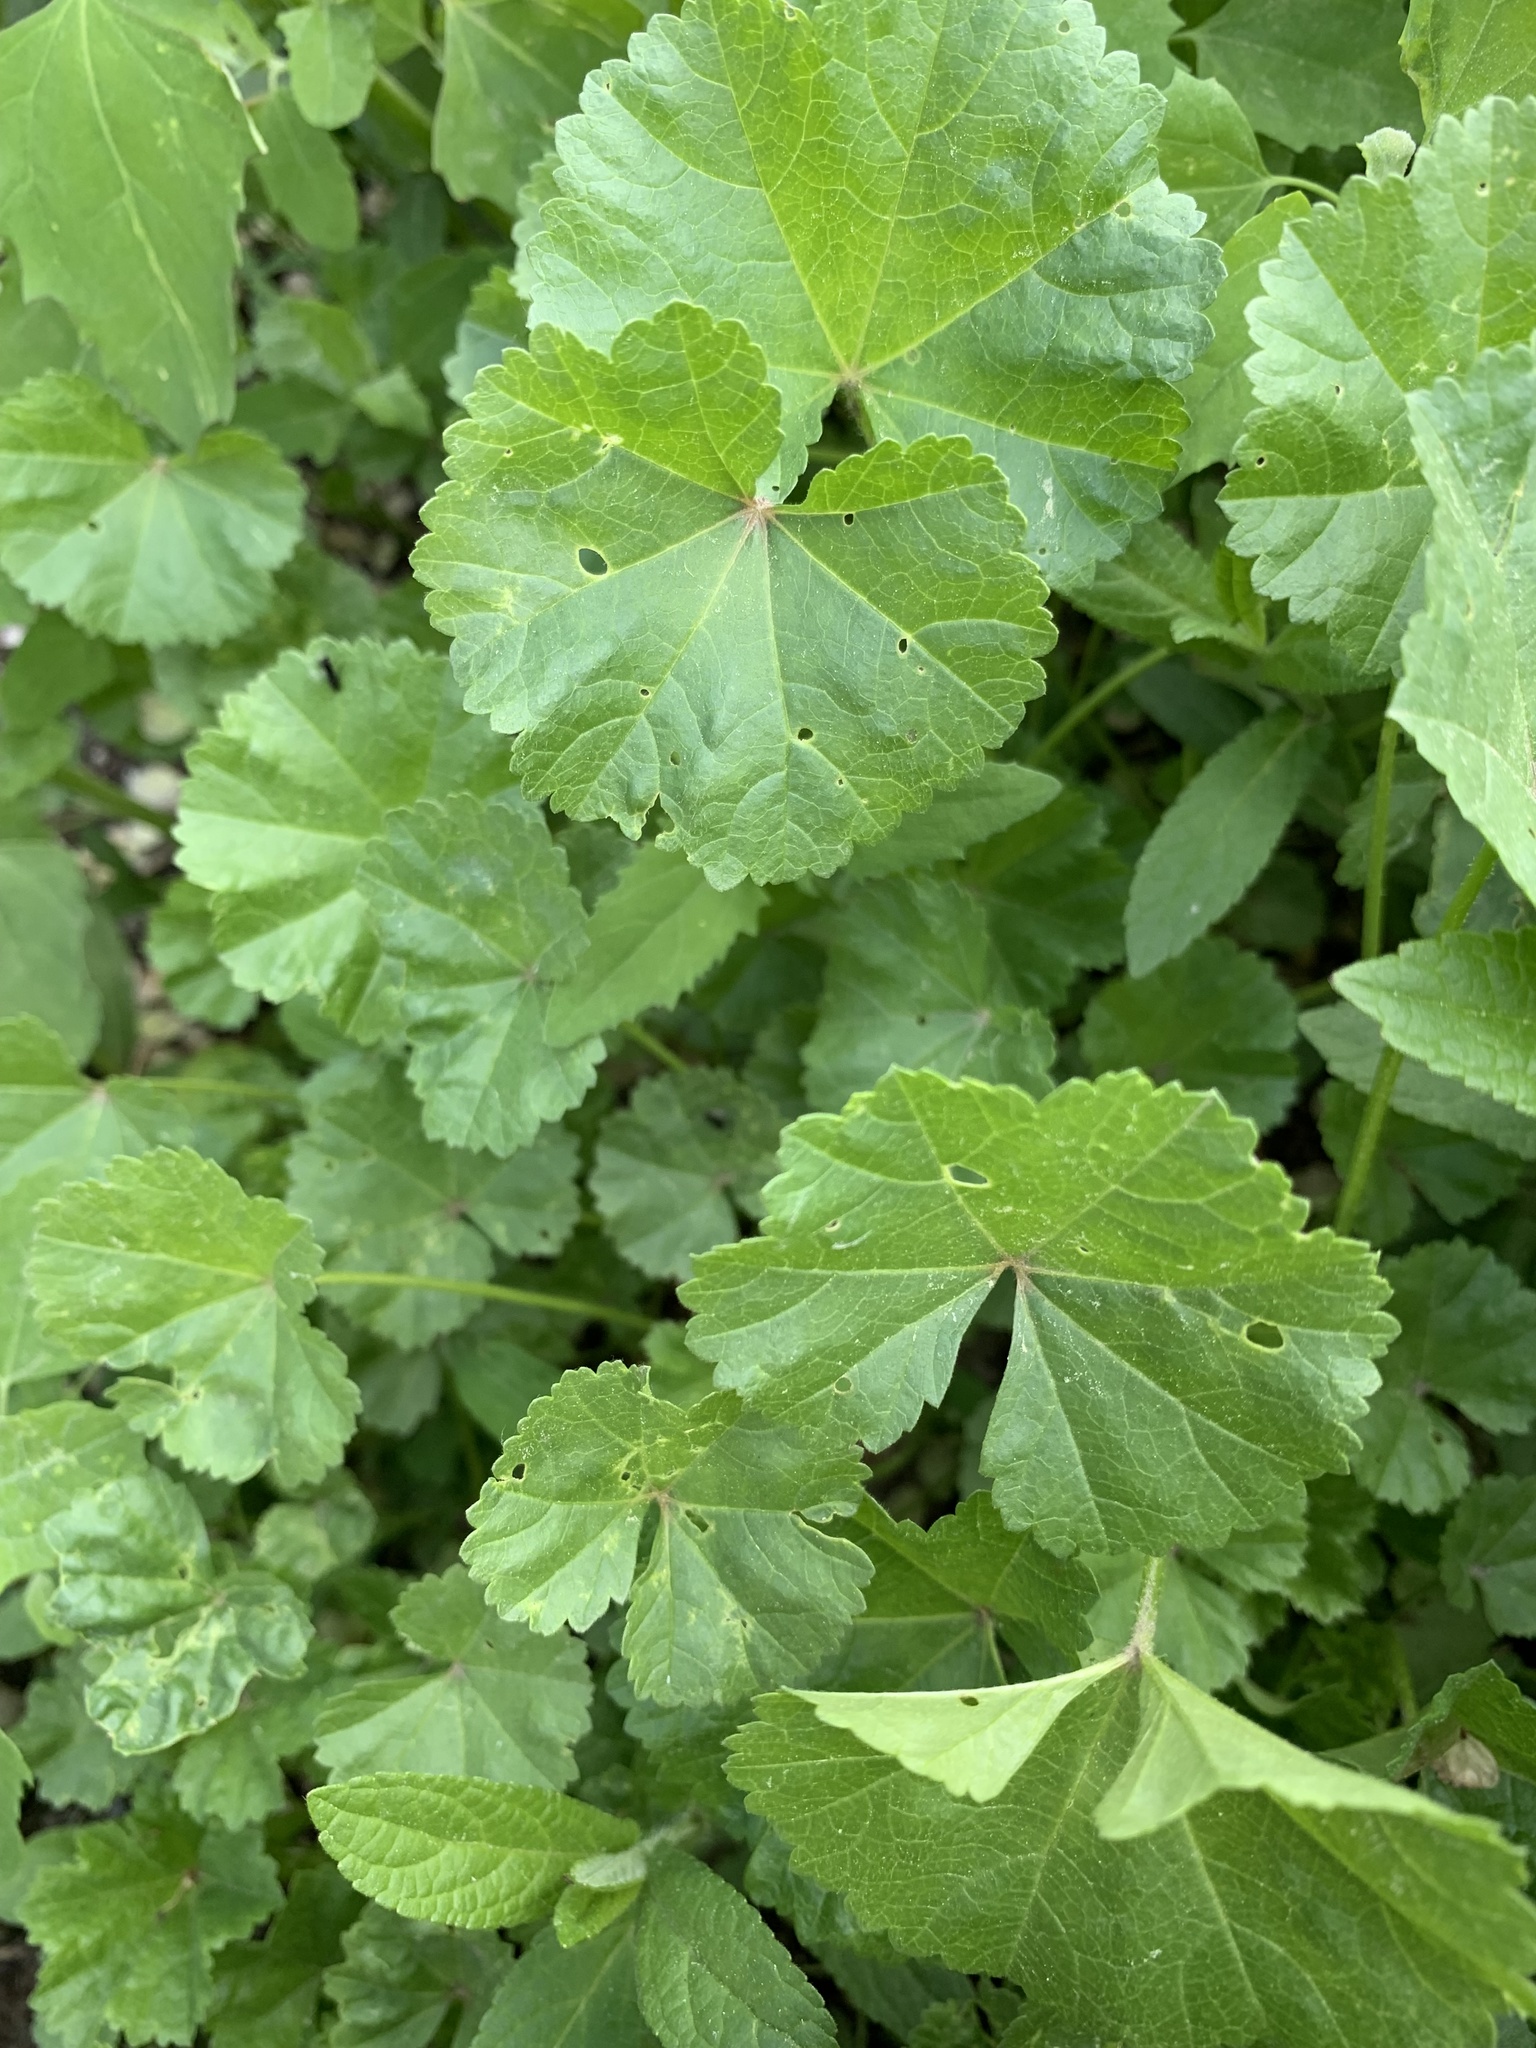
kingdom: Plantae
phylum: Tracheophyta
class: Magnoliopsida
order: Malvales
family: Malvaceae
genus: Malva
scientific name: Malva pusilla
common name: Small mallow
